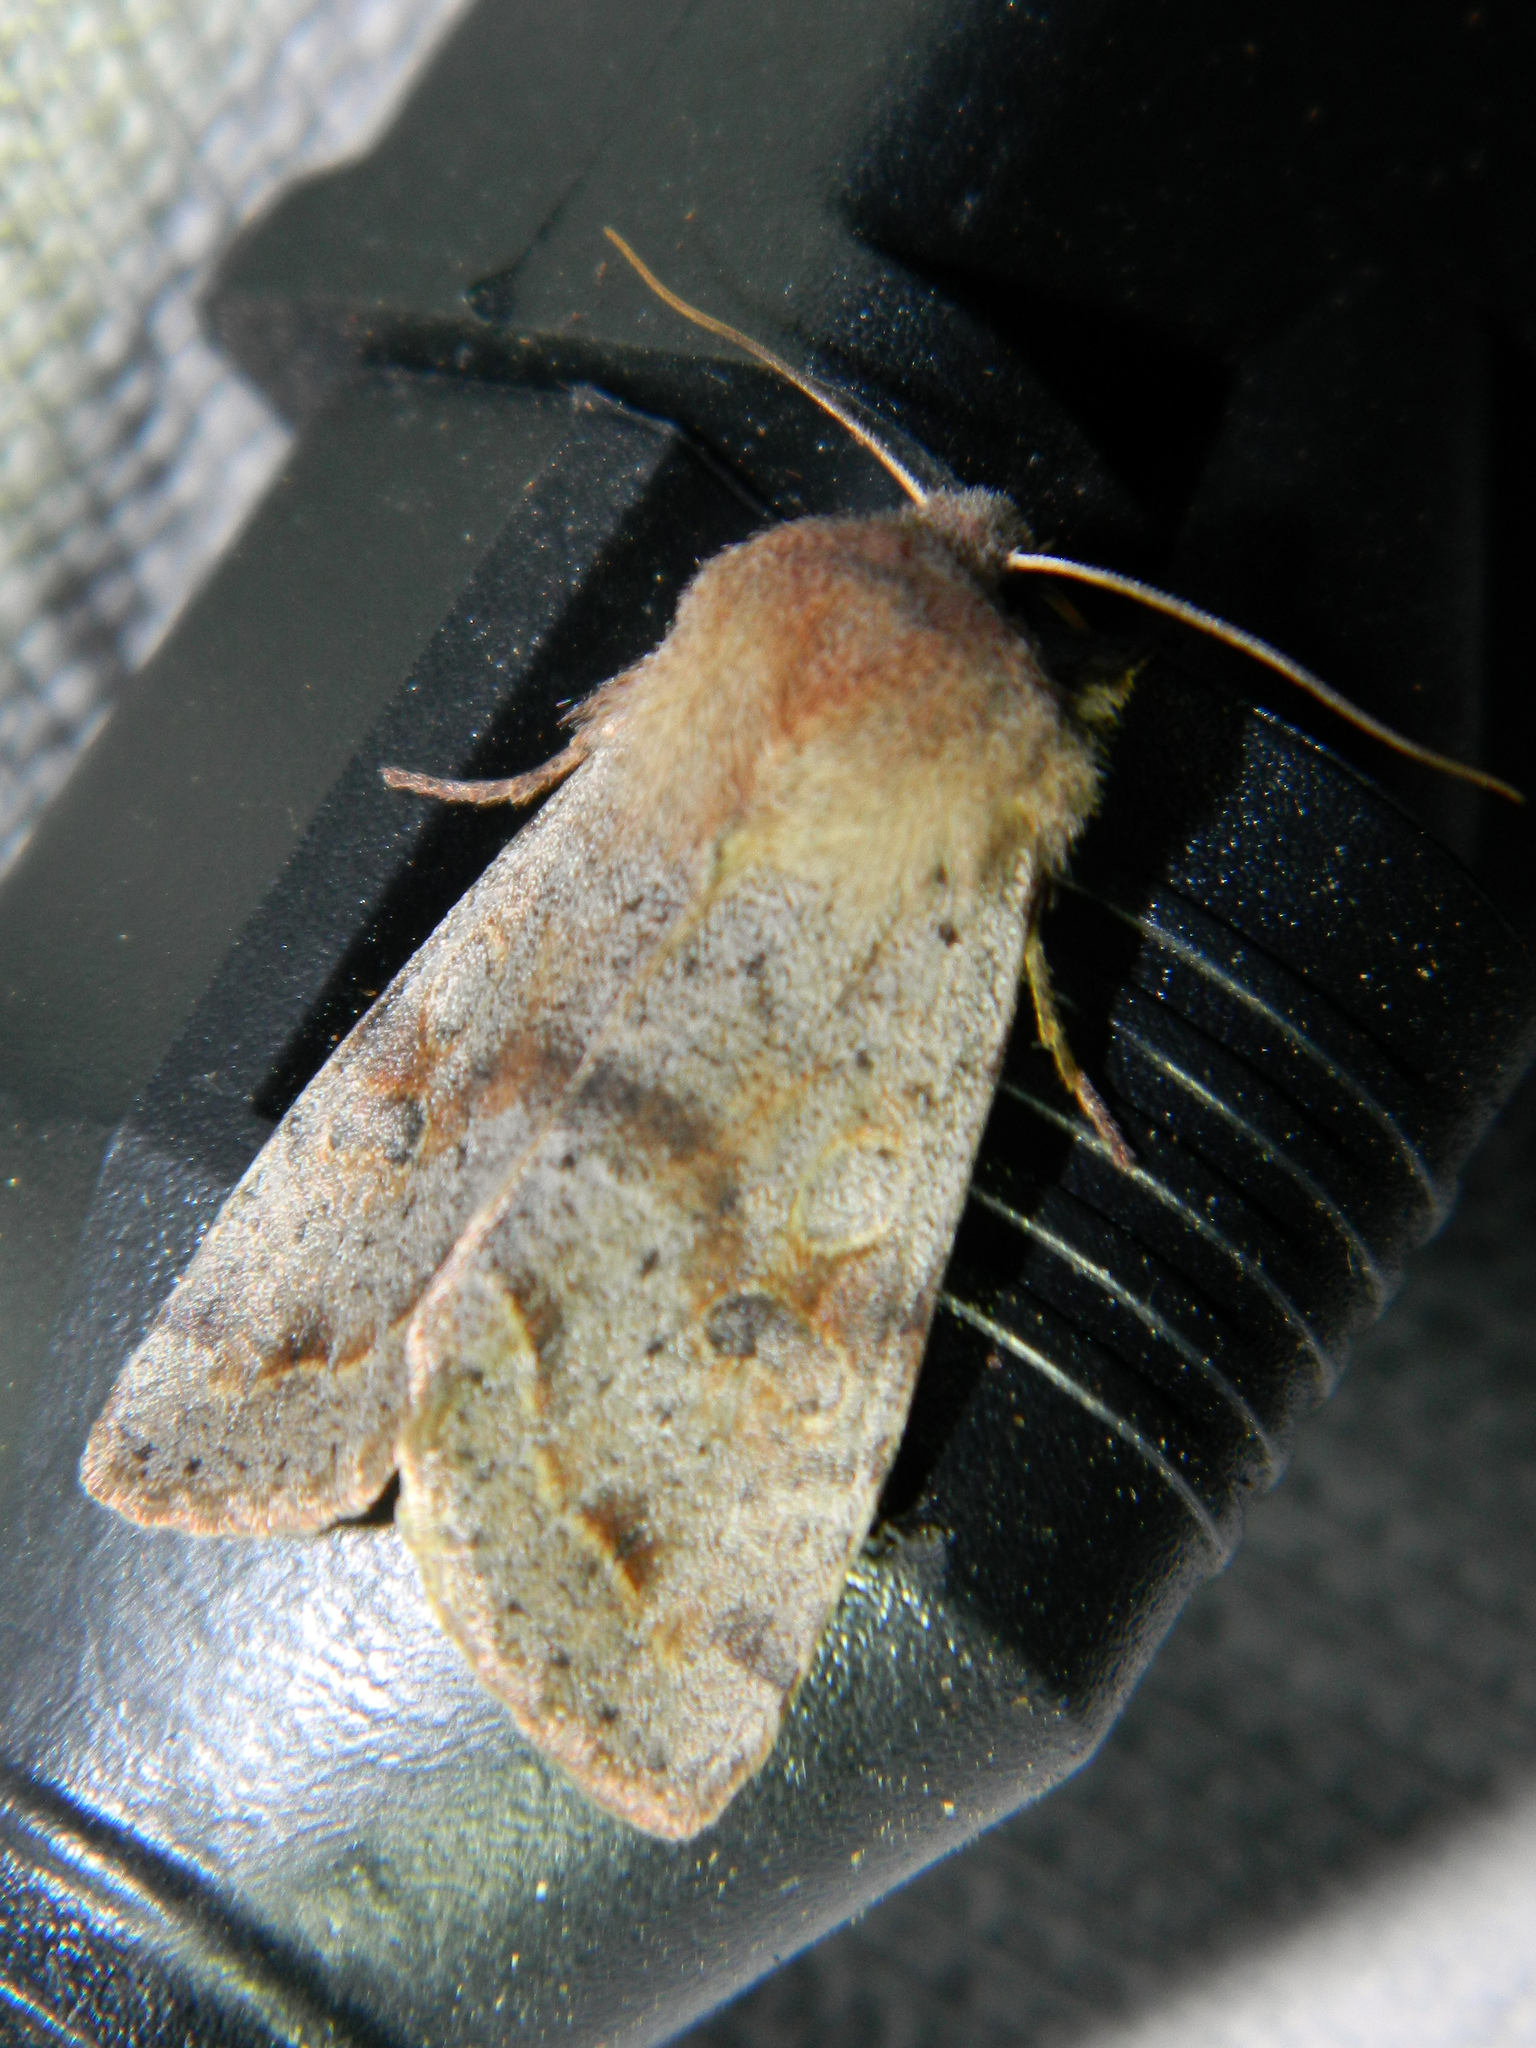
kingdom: Animalia
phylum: Arthropoda
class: Insecta
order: Lepidoptera
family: Noctuidae
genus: Orthosia
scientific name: Orthosia hibisci
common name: Green fruitworm
